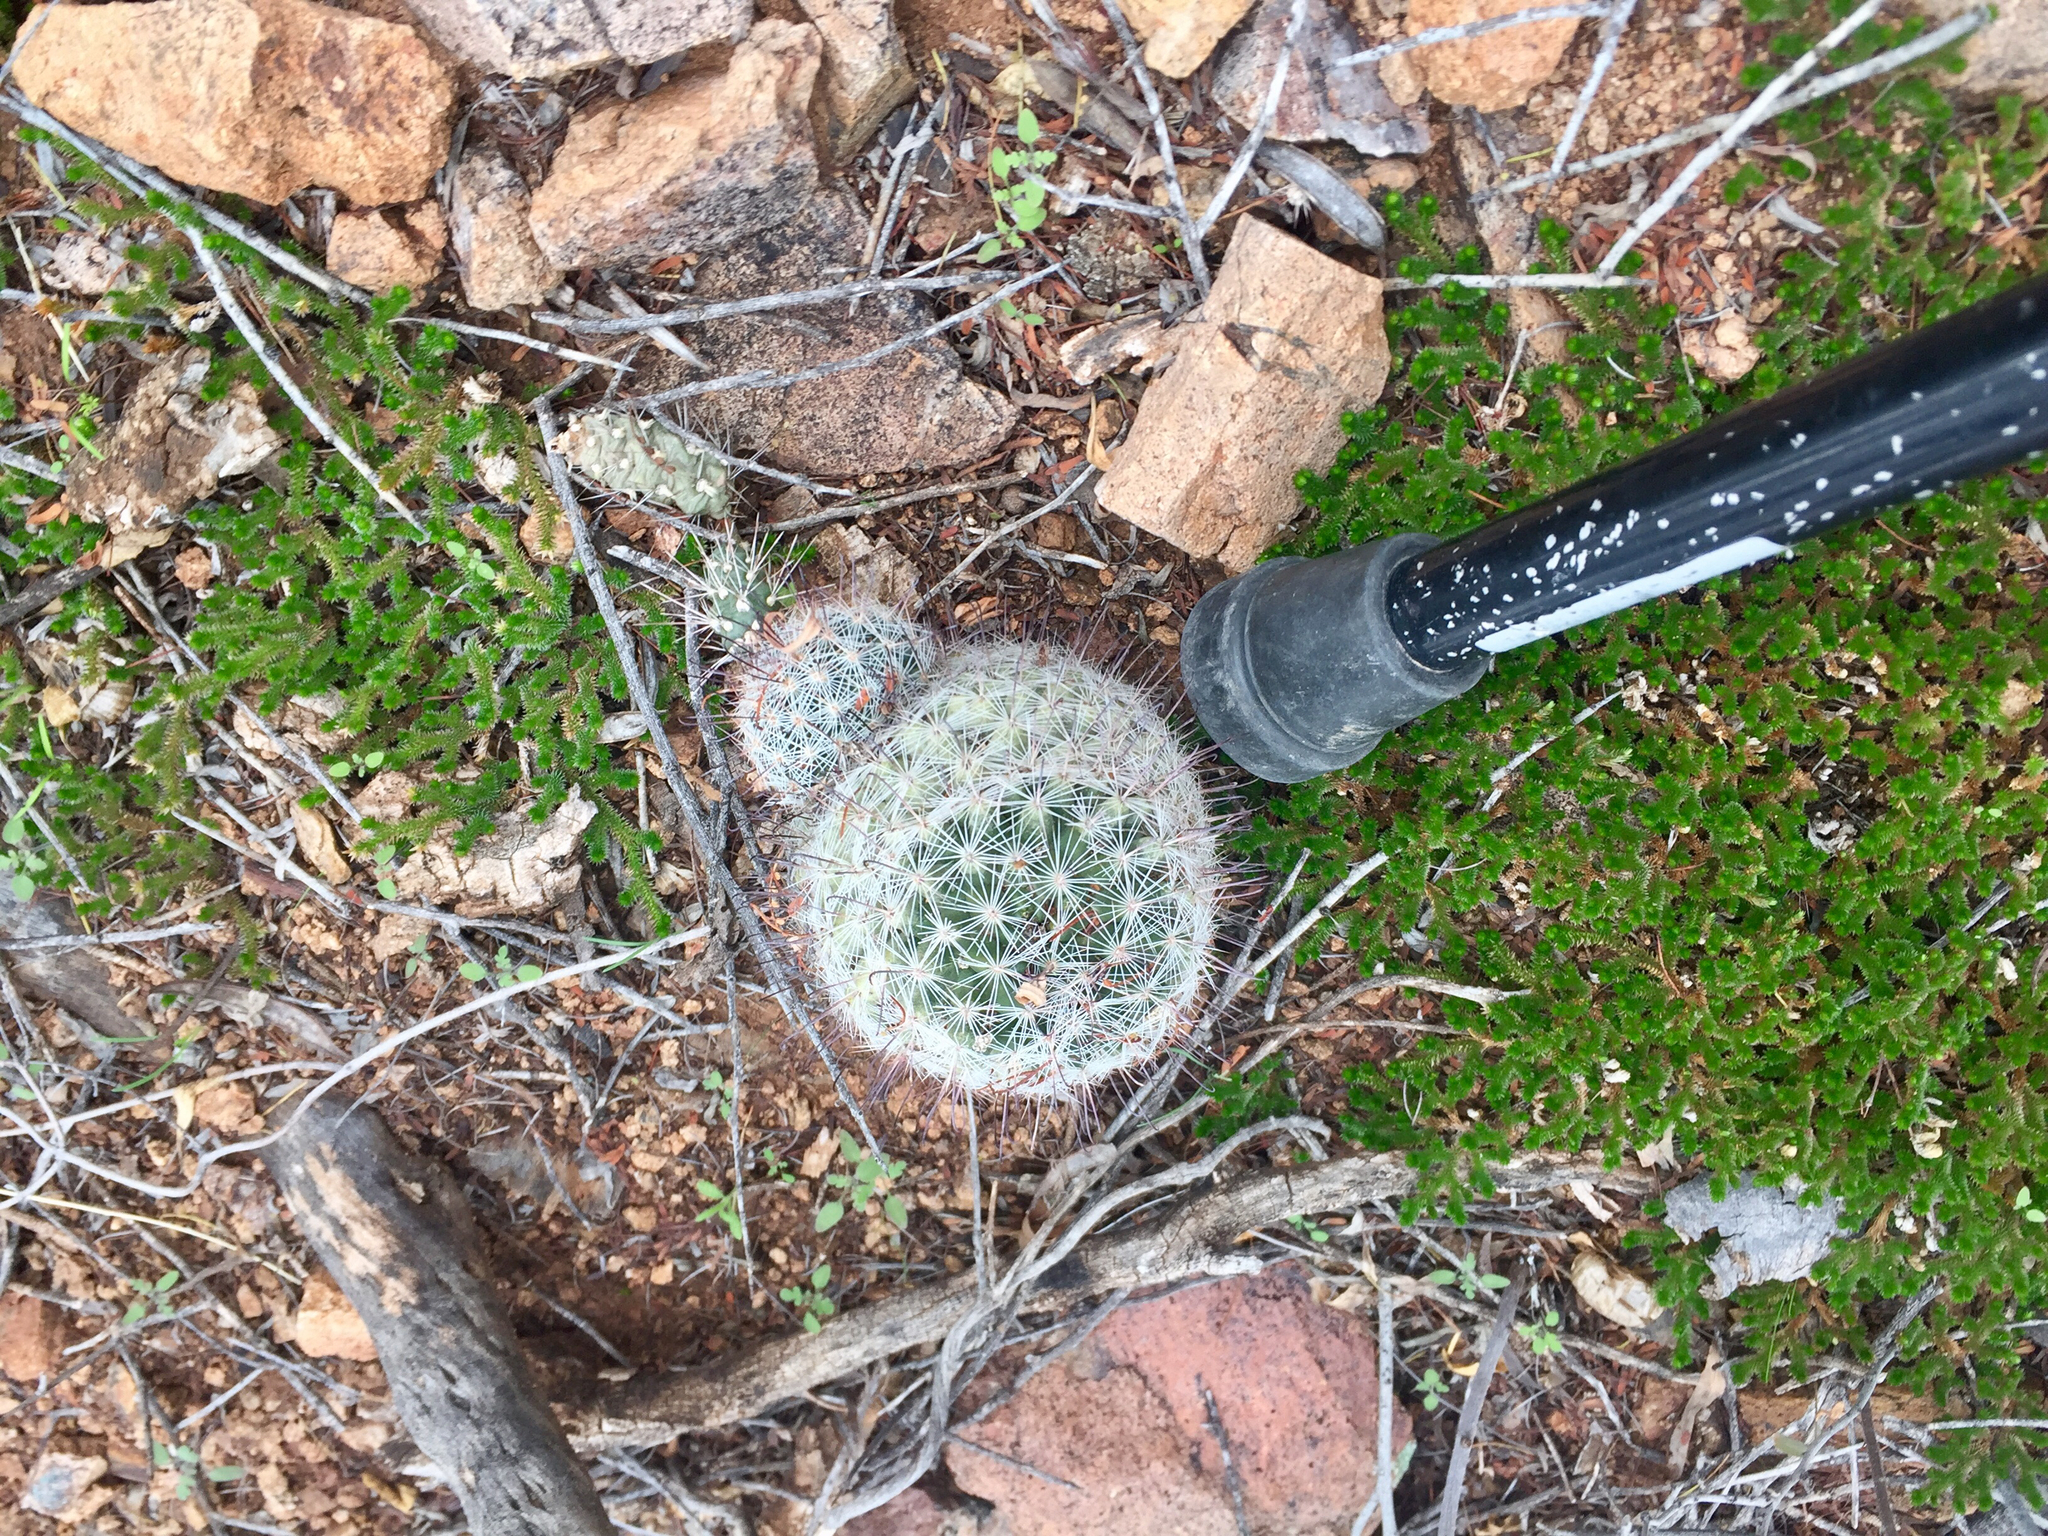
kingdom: Plantae
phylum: Tracheophyta
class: Magnoliopsida
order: Caryophyllales
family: Cactaceae
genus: Cochemiea
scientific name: Cochemiea grahamii
